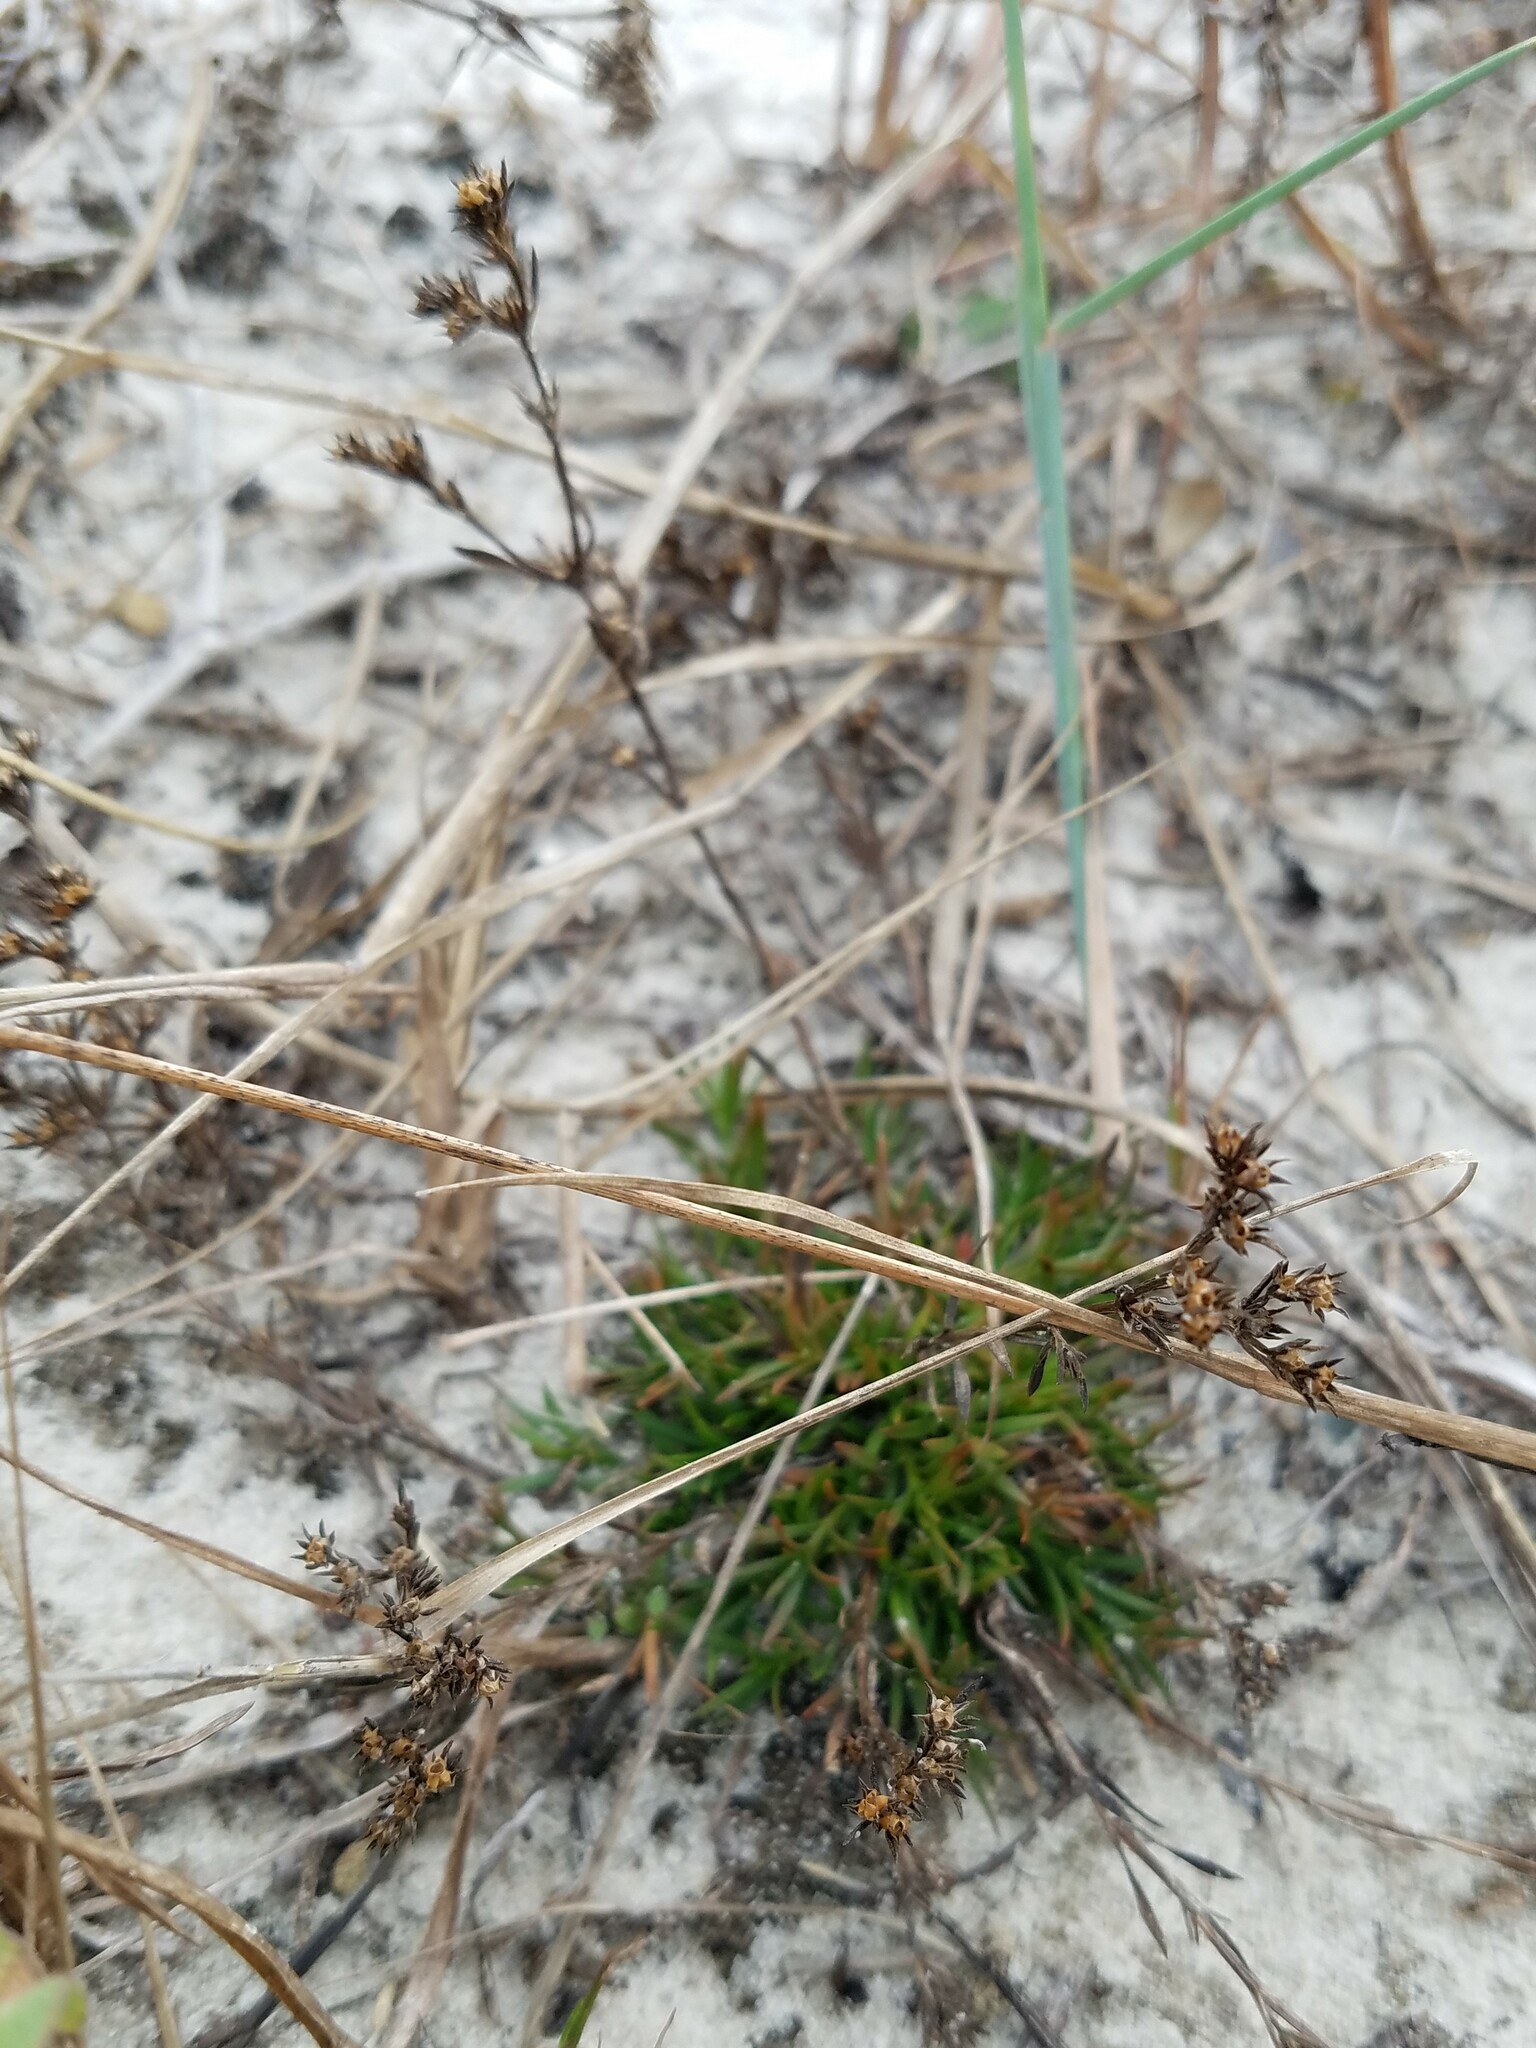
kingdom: Plantae
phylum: Tracheophyta
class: Magnoliopsida
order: Lamiales
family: Tetrachondraceae
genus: Polypremum
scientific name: Polypremum procumbens
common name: Juniper-leaf
